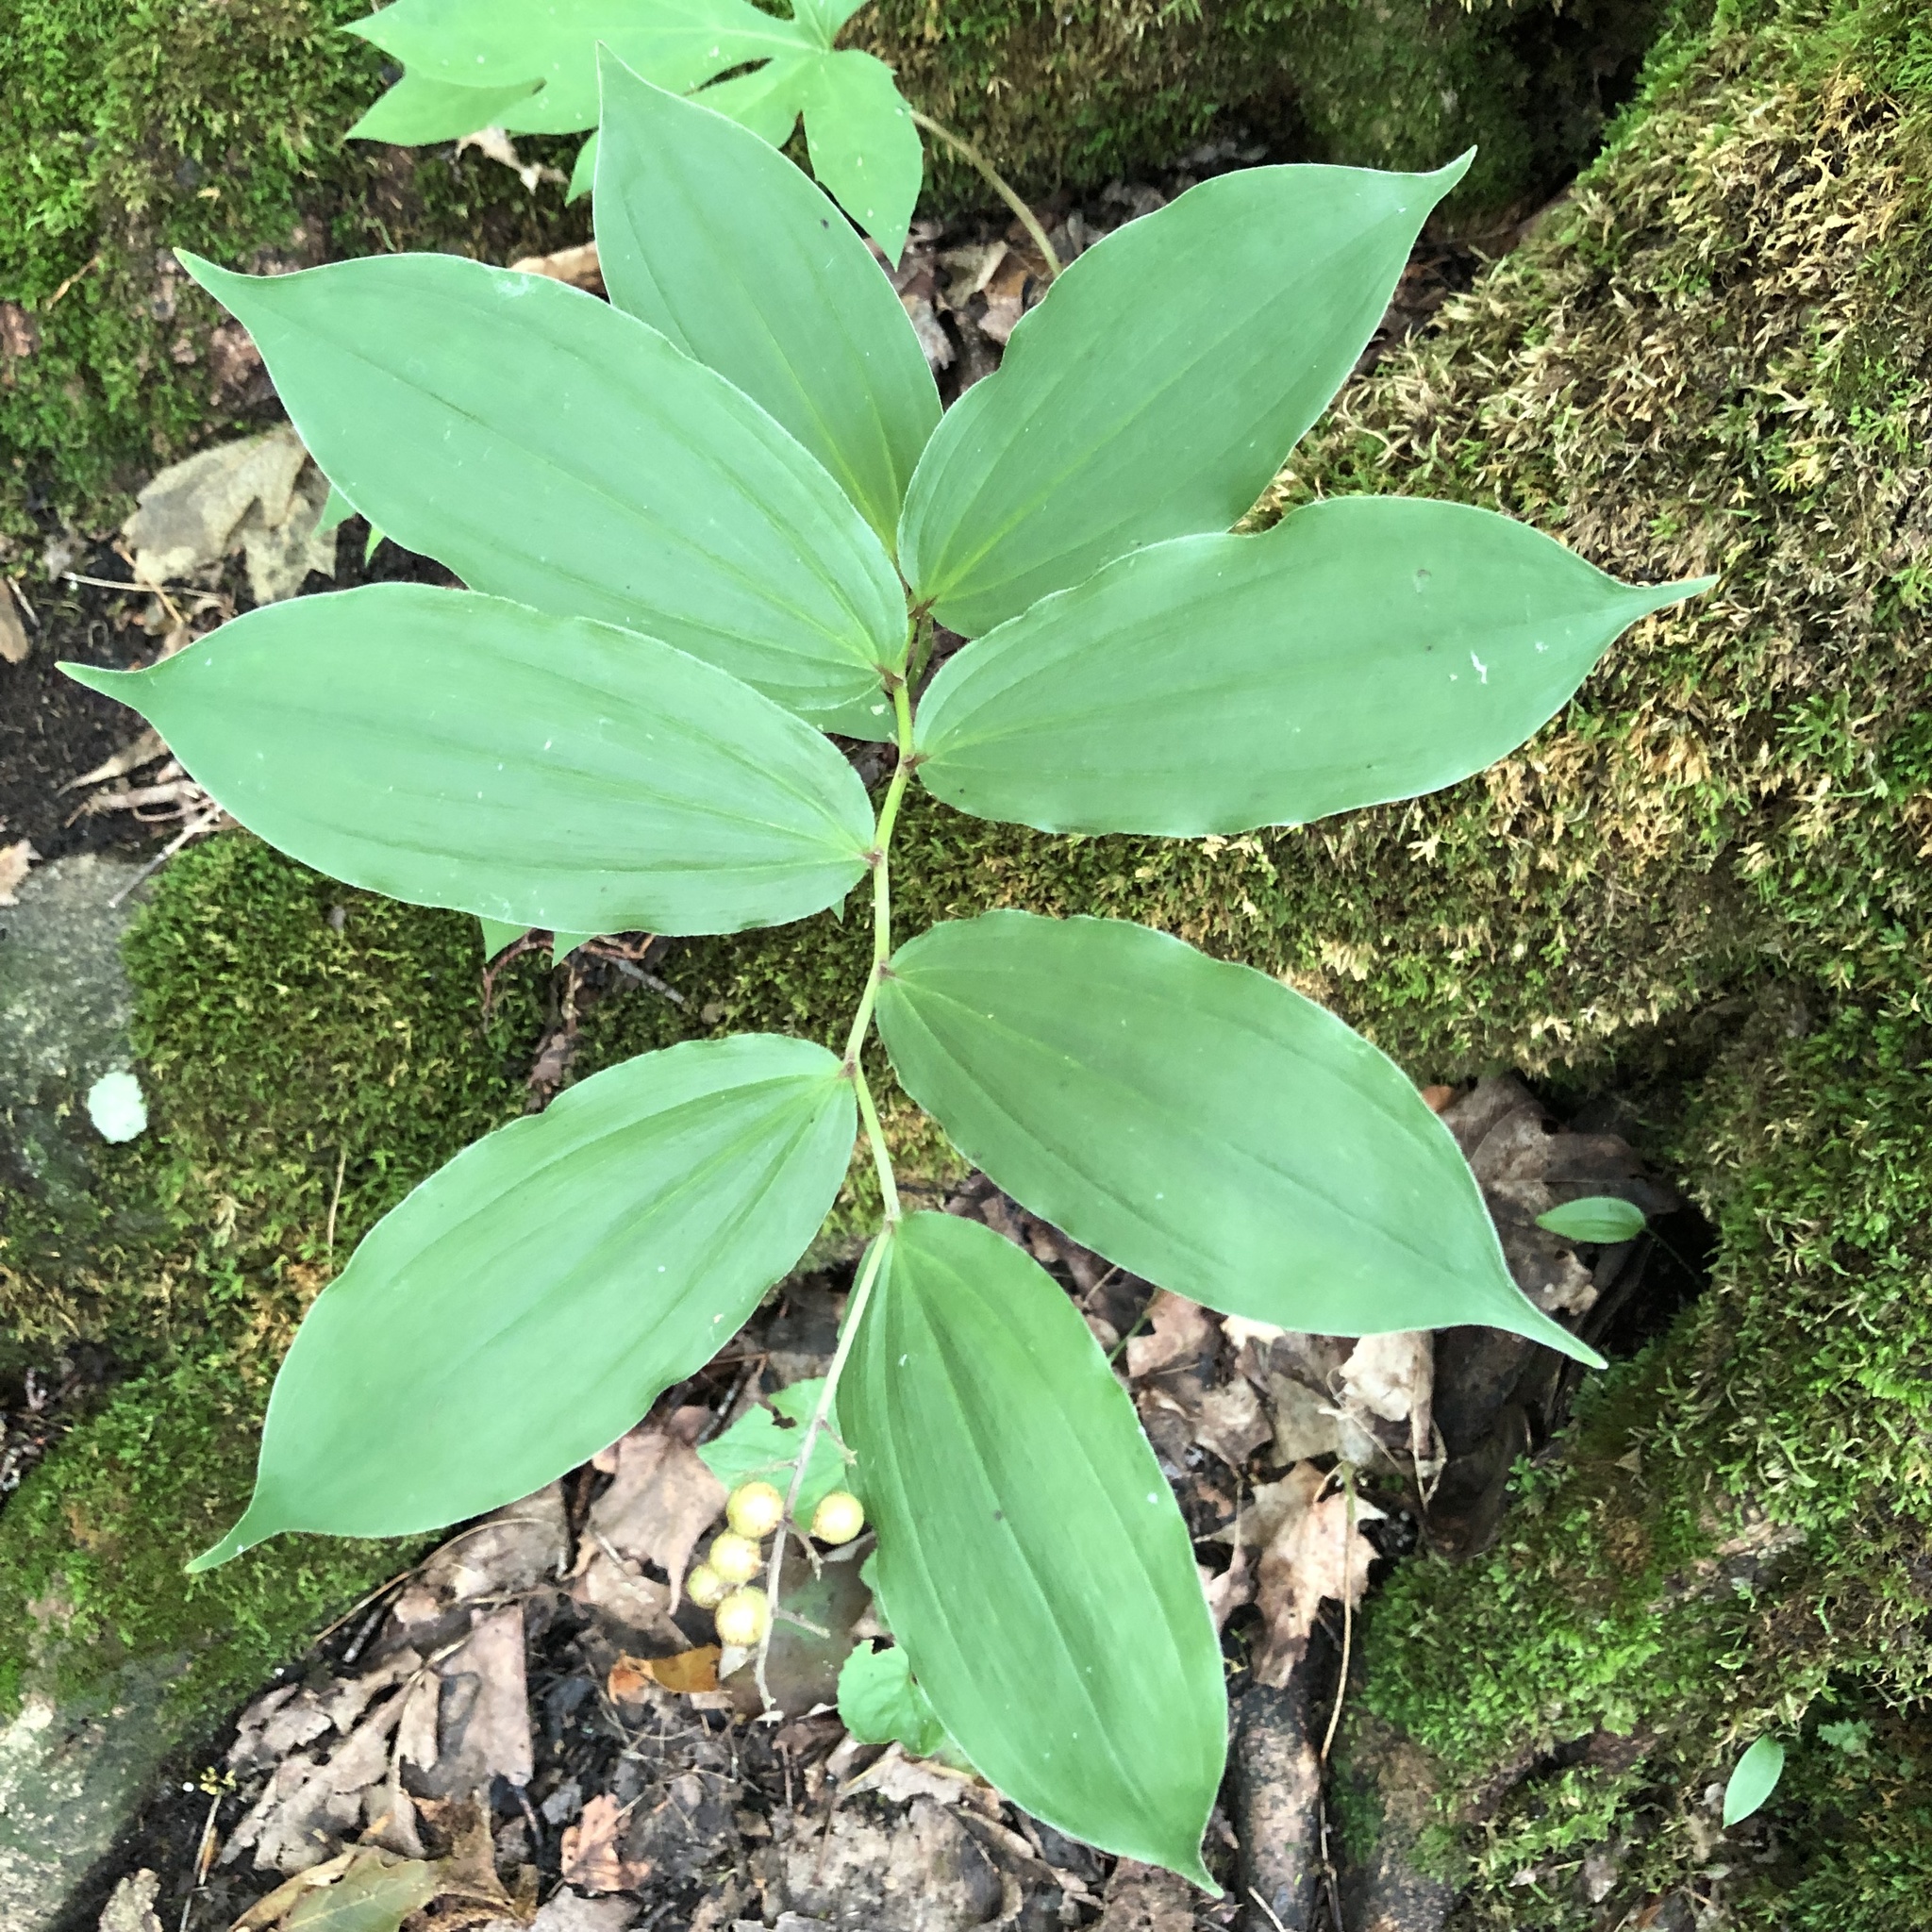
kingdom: Plantae
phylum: Tracheophyta
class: Liliopsida
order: Asparagales
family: Asparagaceae
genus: Maianthemum
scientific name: Maianthemum racemosum
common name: False spikenard
